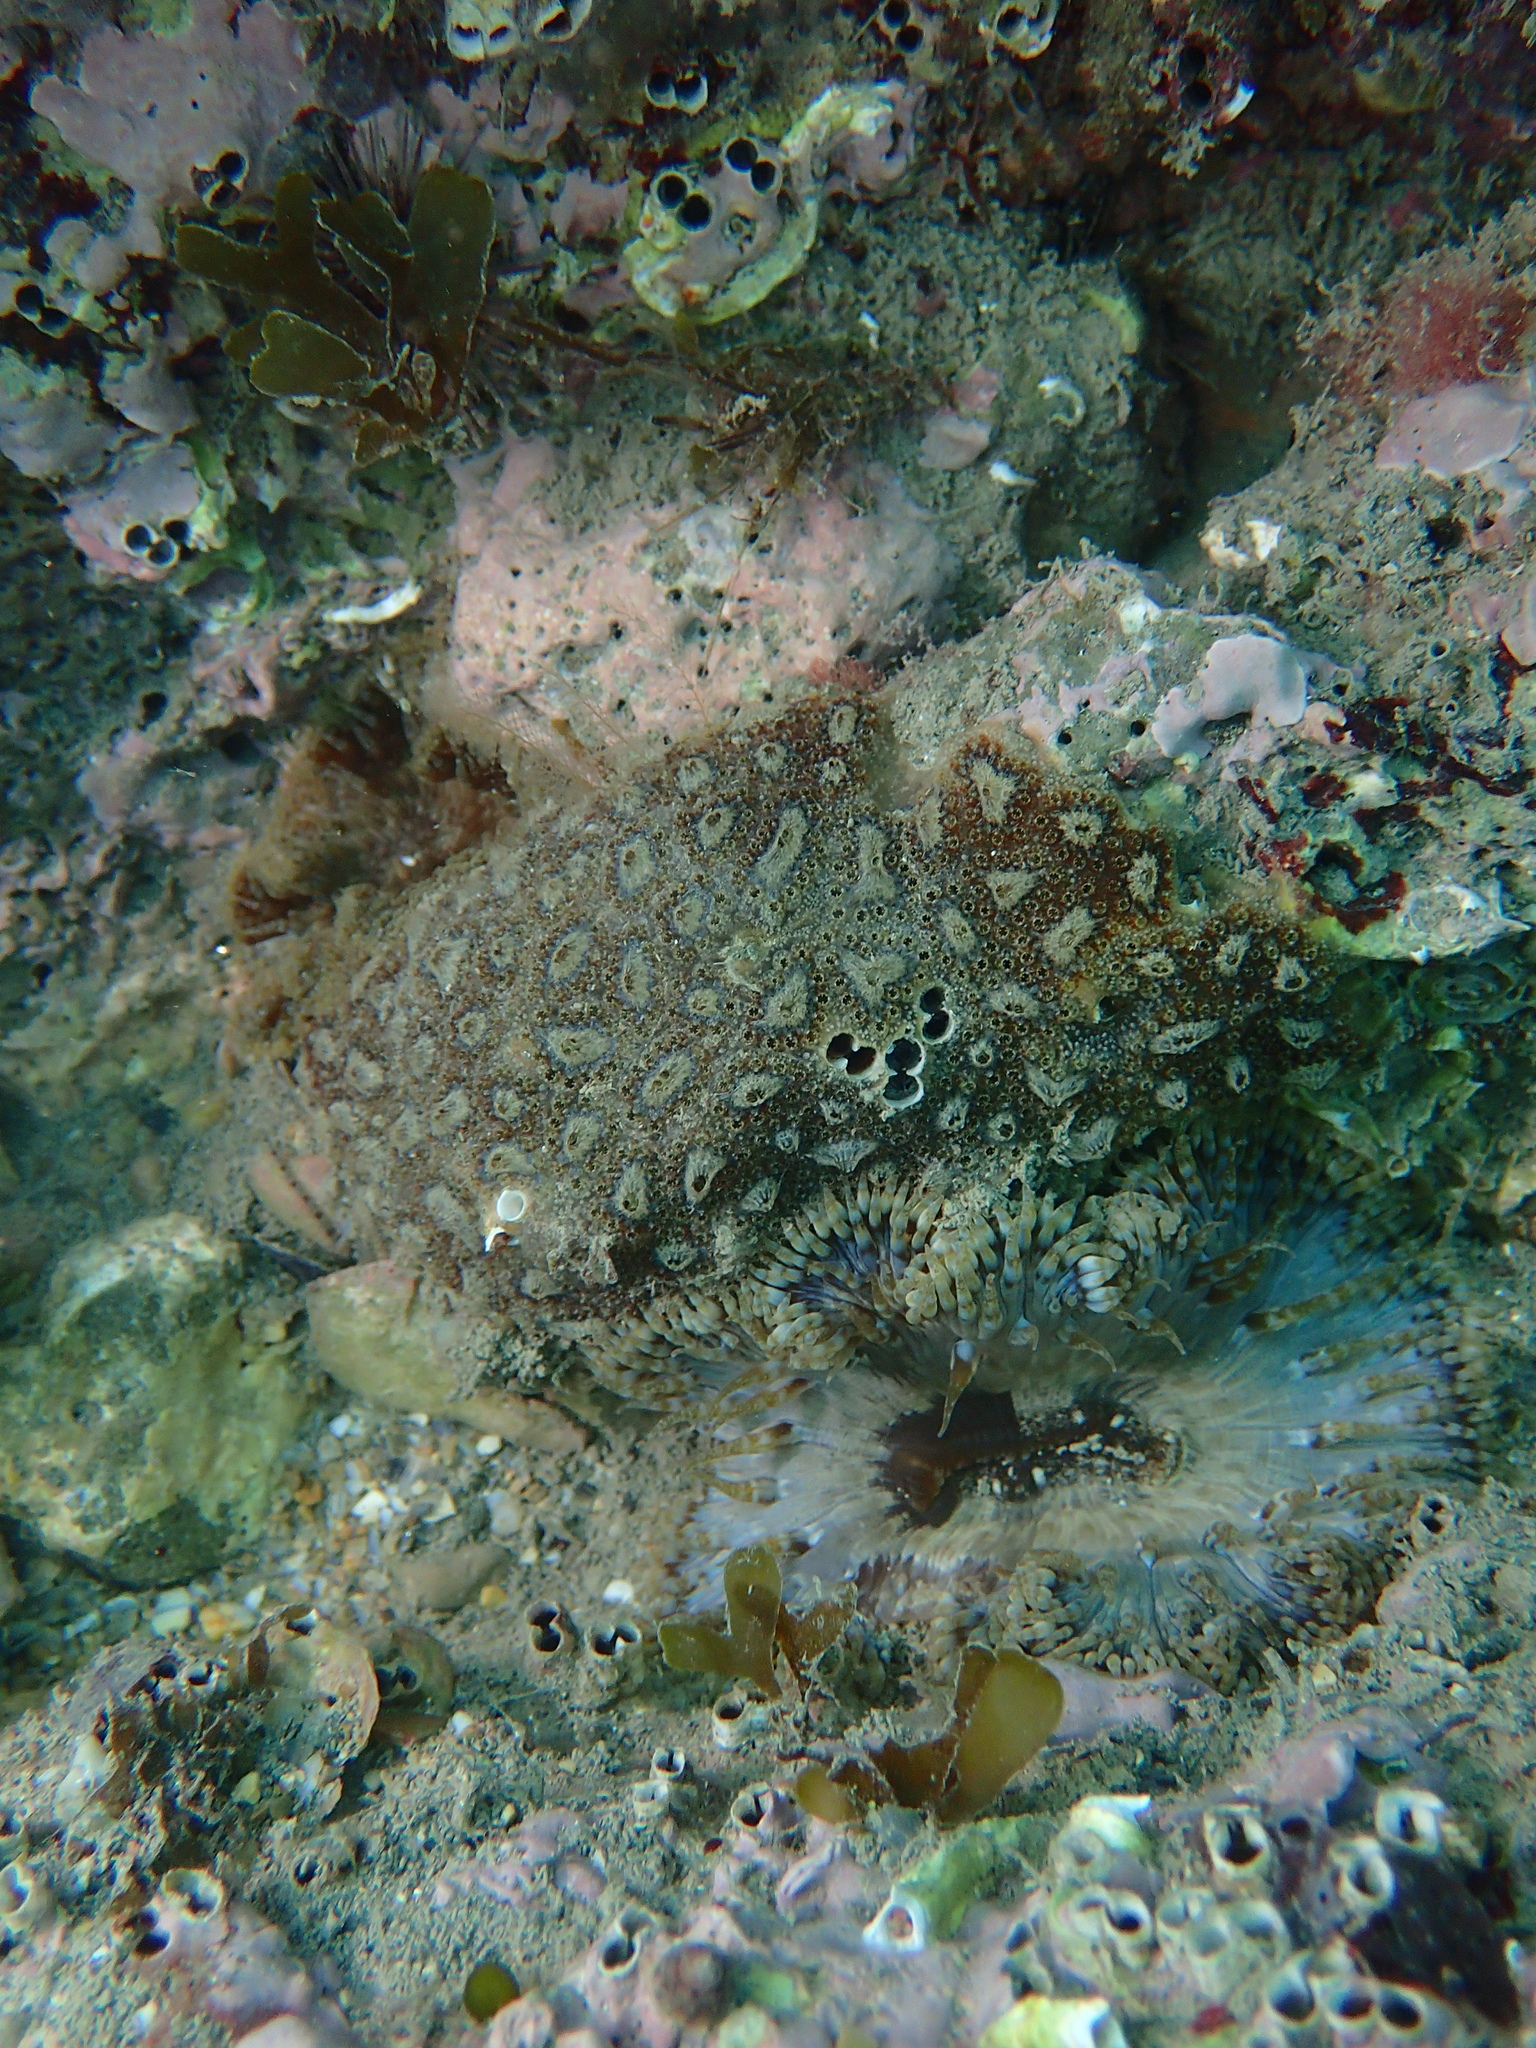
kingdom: Animalia
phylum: Chordata
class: Ascidiacea
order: Stolidobranchia
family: Styelidae
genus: Botryllus
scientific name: Botryllus schlosseri
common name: Golden star tunicate
